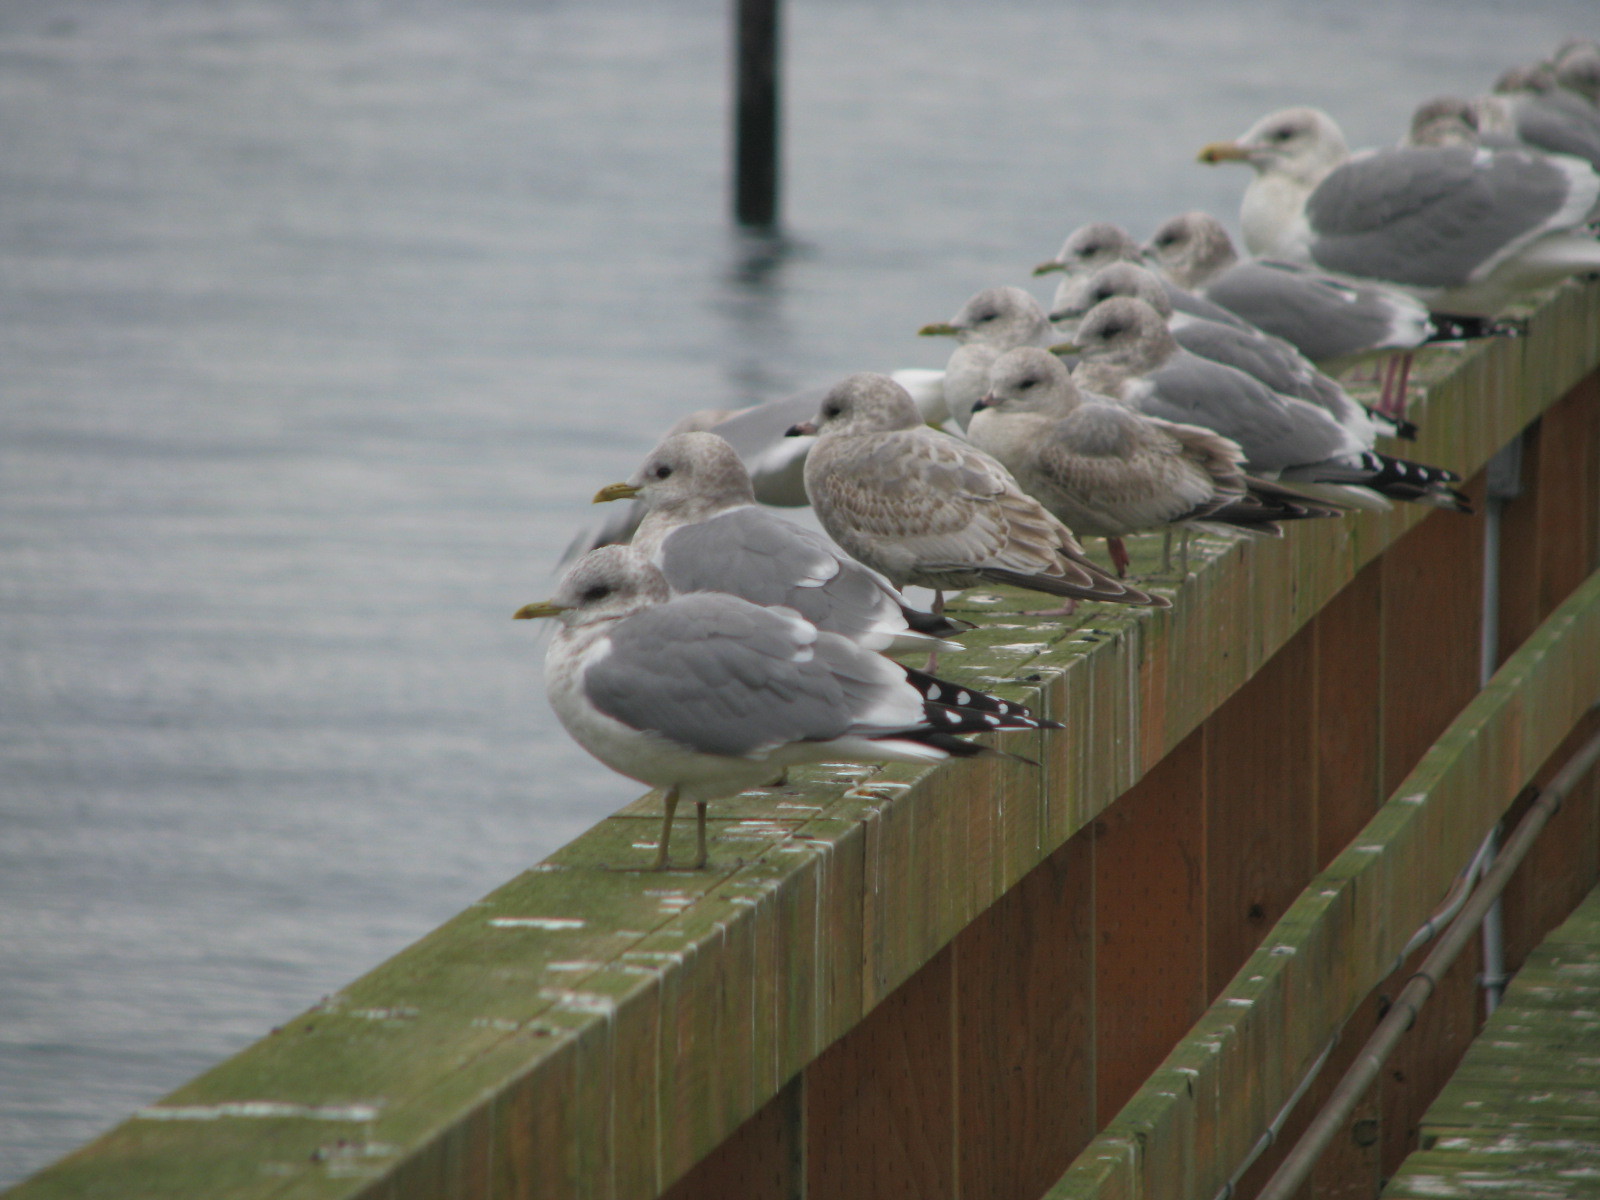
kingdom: Animalia
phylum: Chordata
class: Aves
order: Charadriiformes
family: Laridae
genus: Larus
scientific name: Larus brachyrhynchus
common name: Short-billed gull
